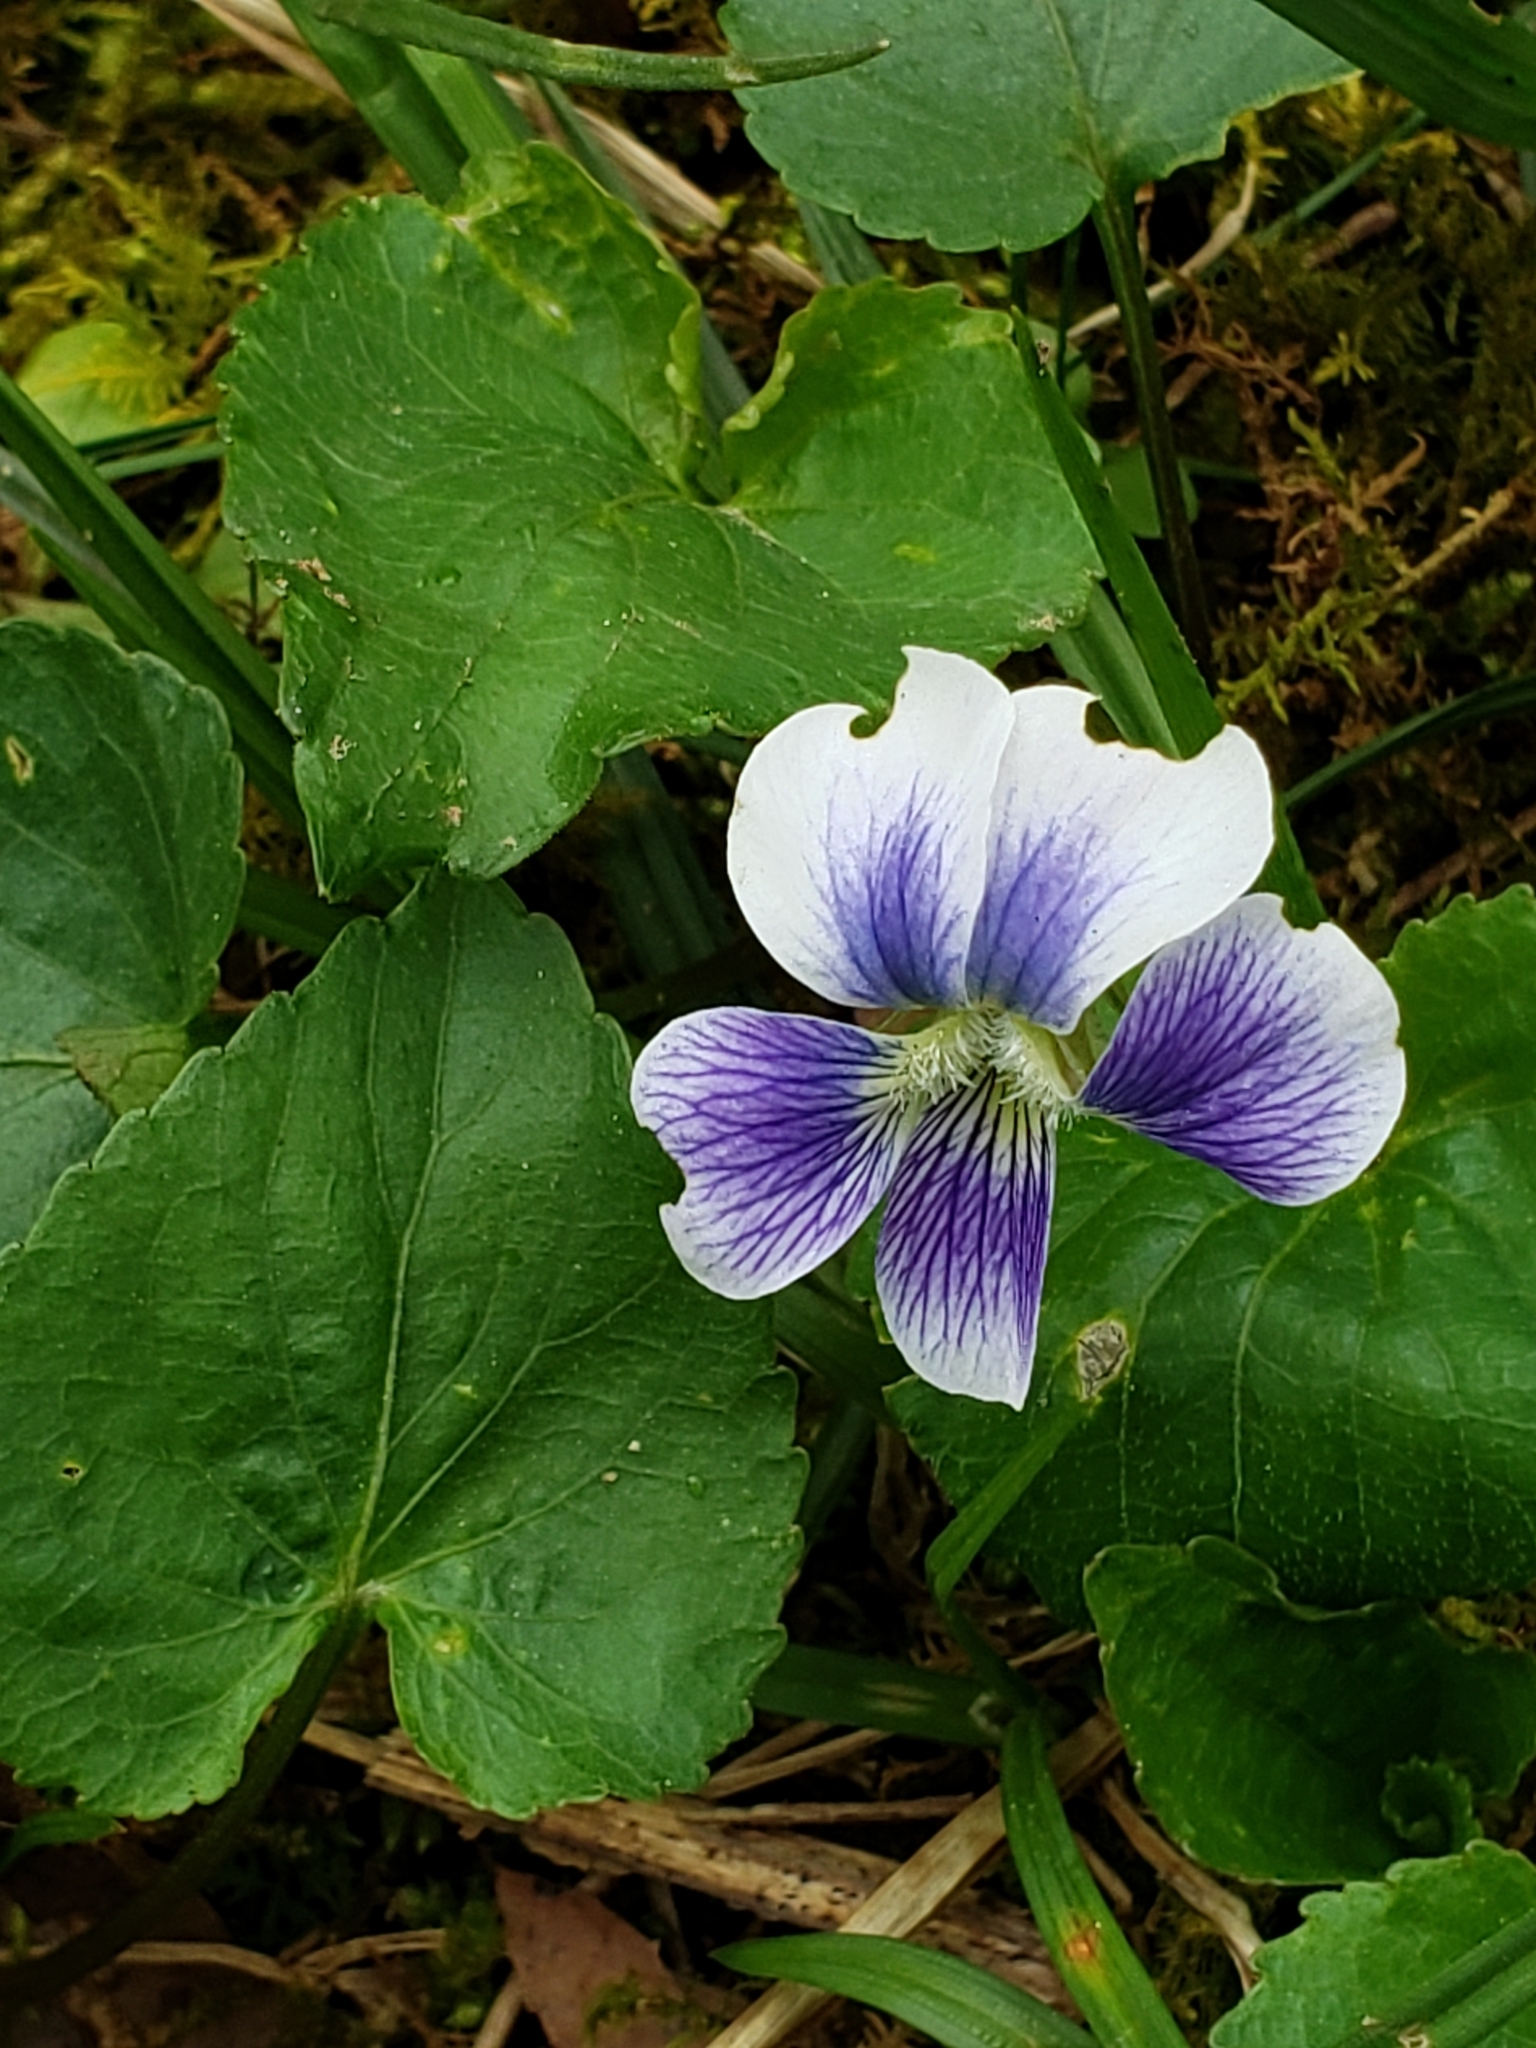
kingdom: Plantae
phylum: Tracheophyta
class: Magnoliopsida
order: Malpighiales
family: Violaceae
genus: Viola
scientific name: Viola sororia
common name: Dooryard violet
